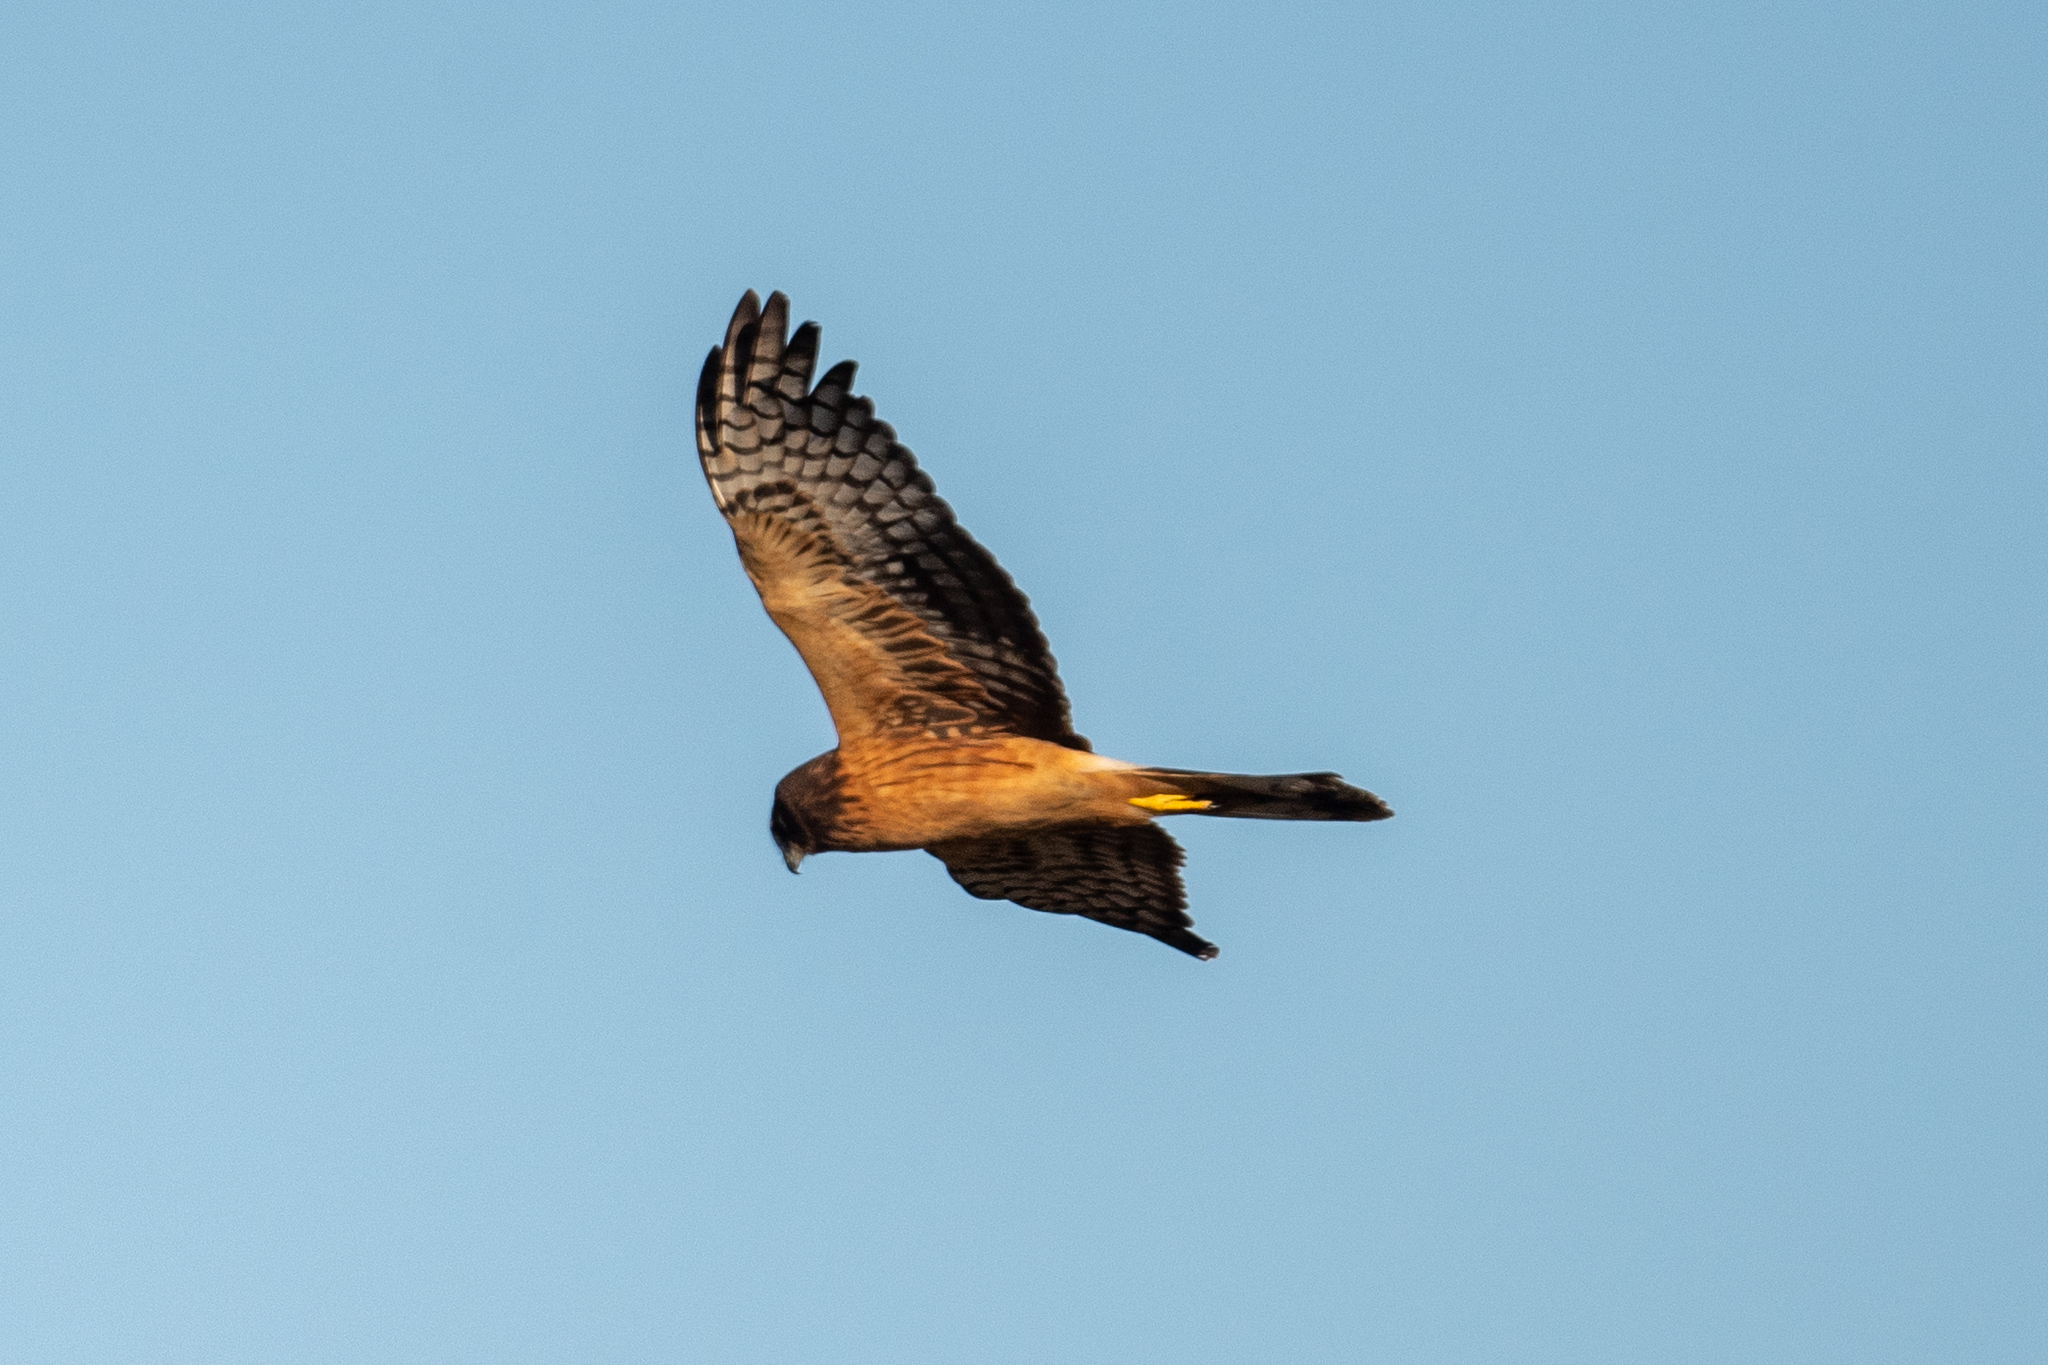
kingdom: Animalia
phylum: Chordata
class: Aves
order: Accipitriformes
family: Accipitridae
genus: Circus
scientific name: Circus cyaneus
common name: Hen harrier
